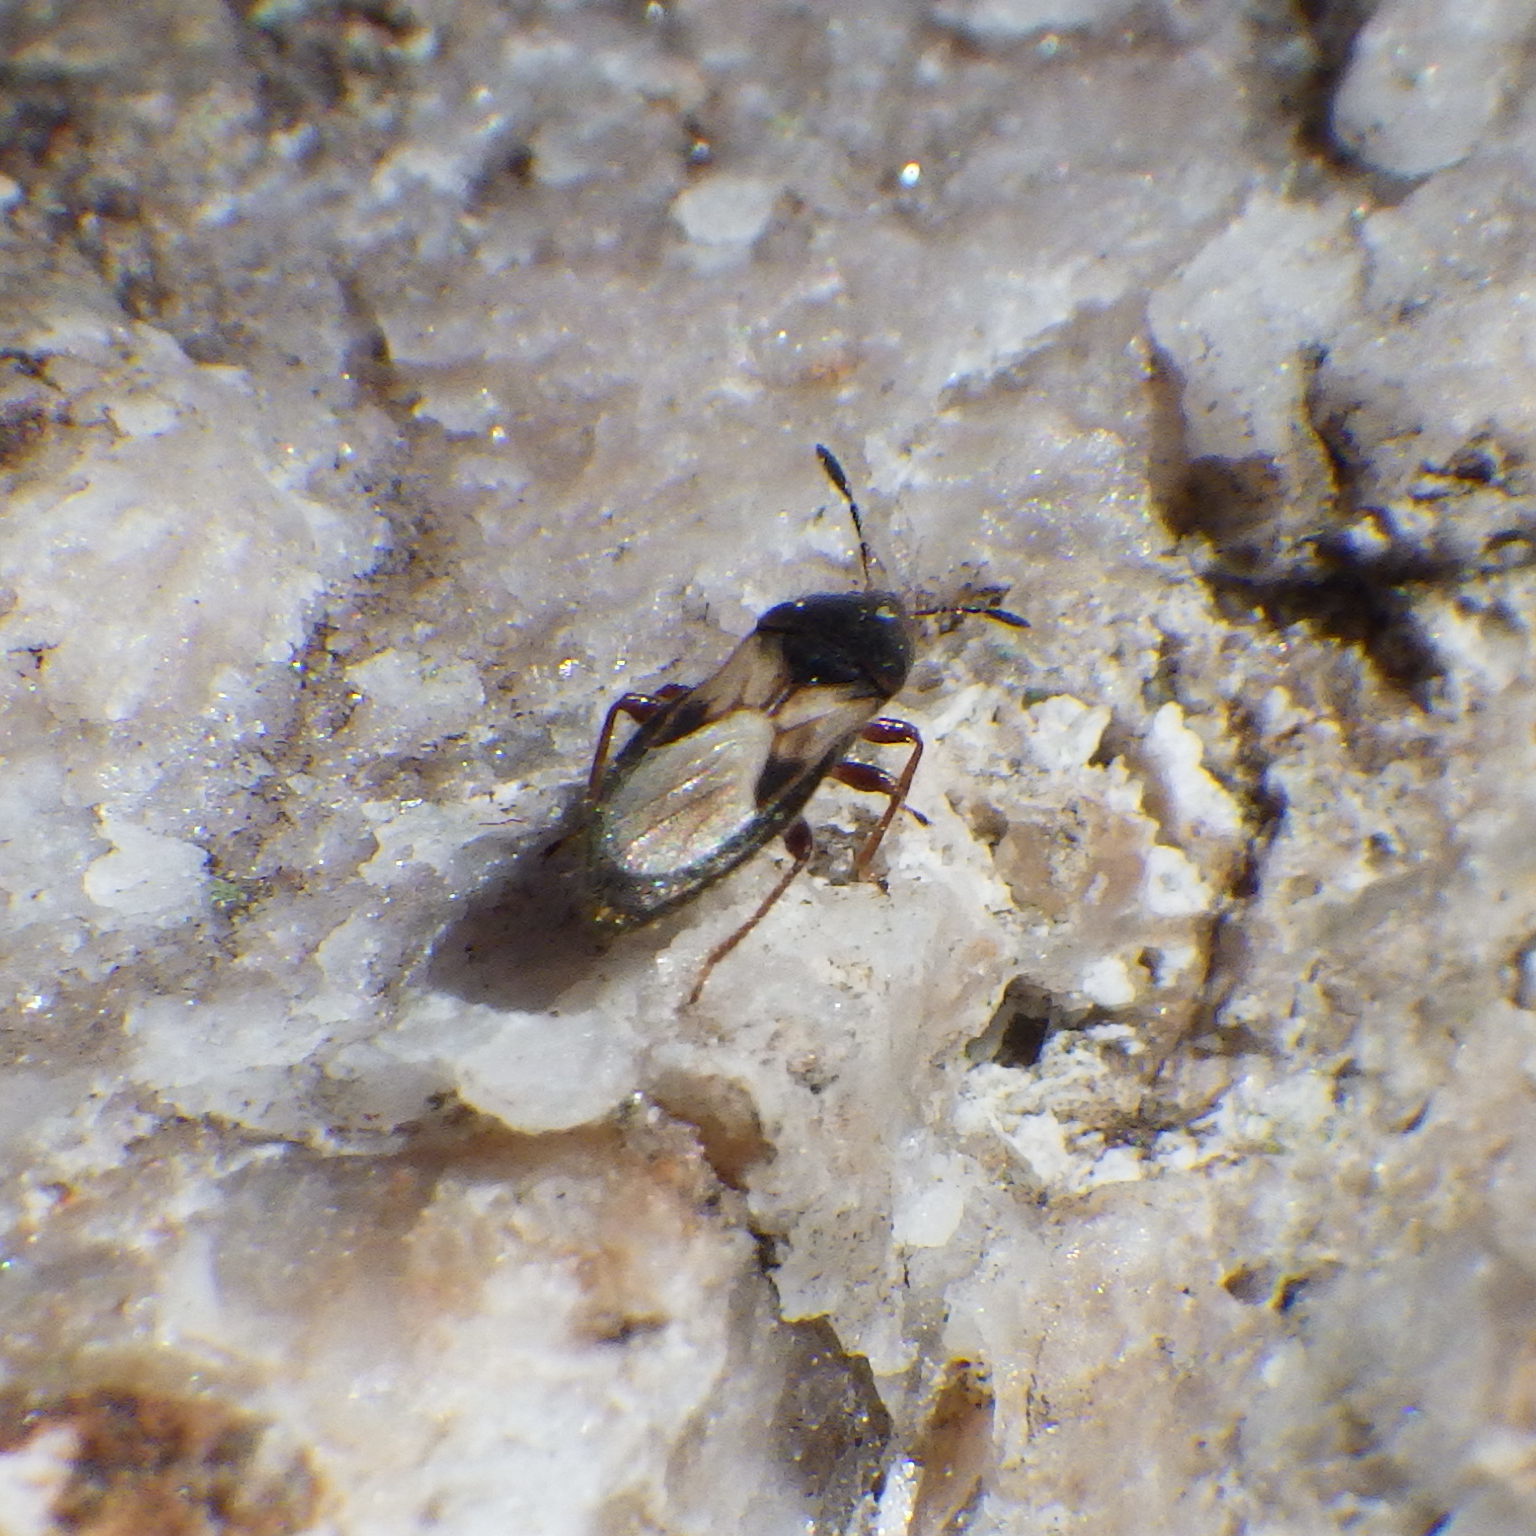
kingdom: Animalia
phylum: Arthropoda
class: Insecta
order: Hemiptera
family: Blissidae
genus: Blissus
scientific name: Blissus leucopterus
